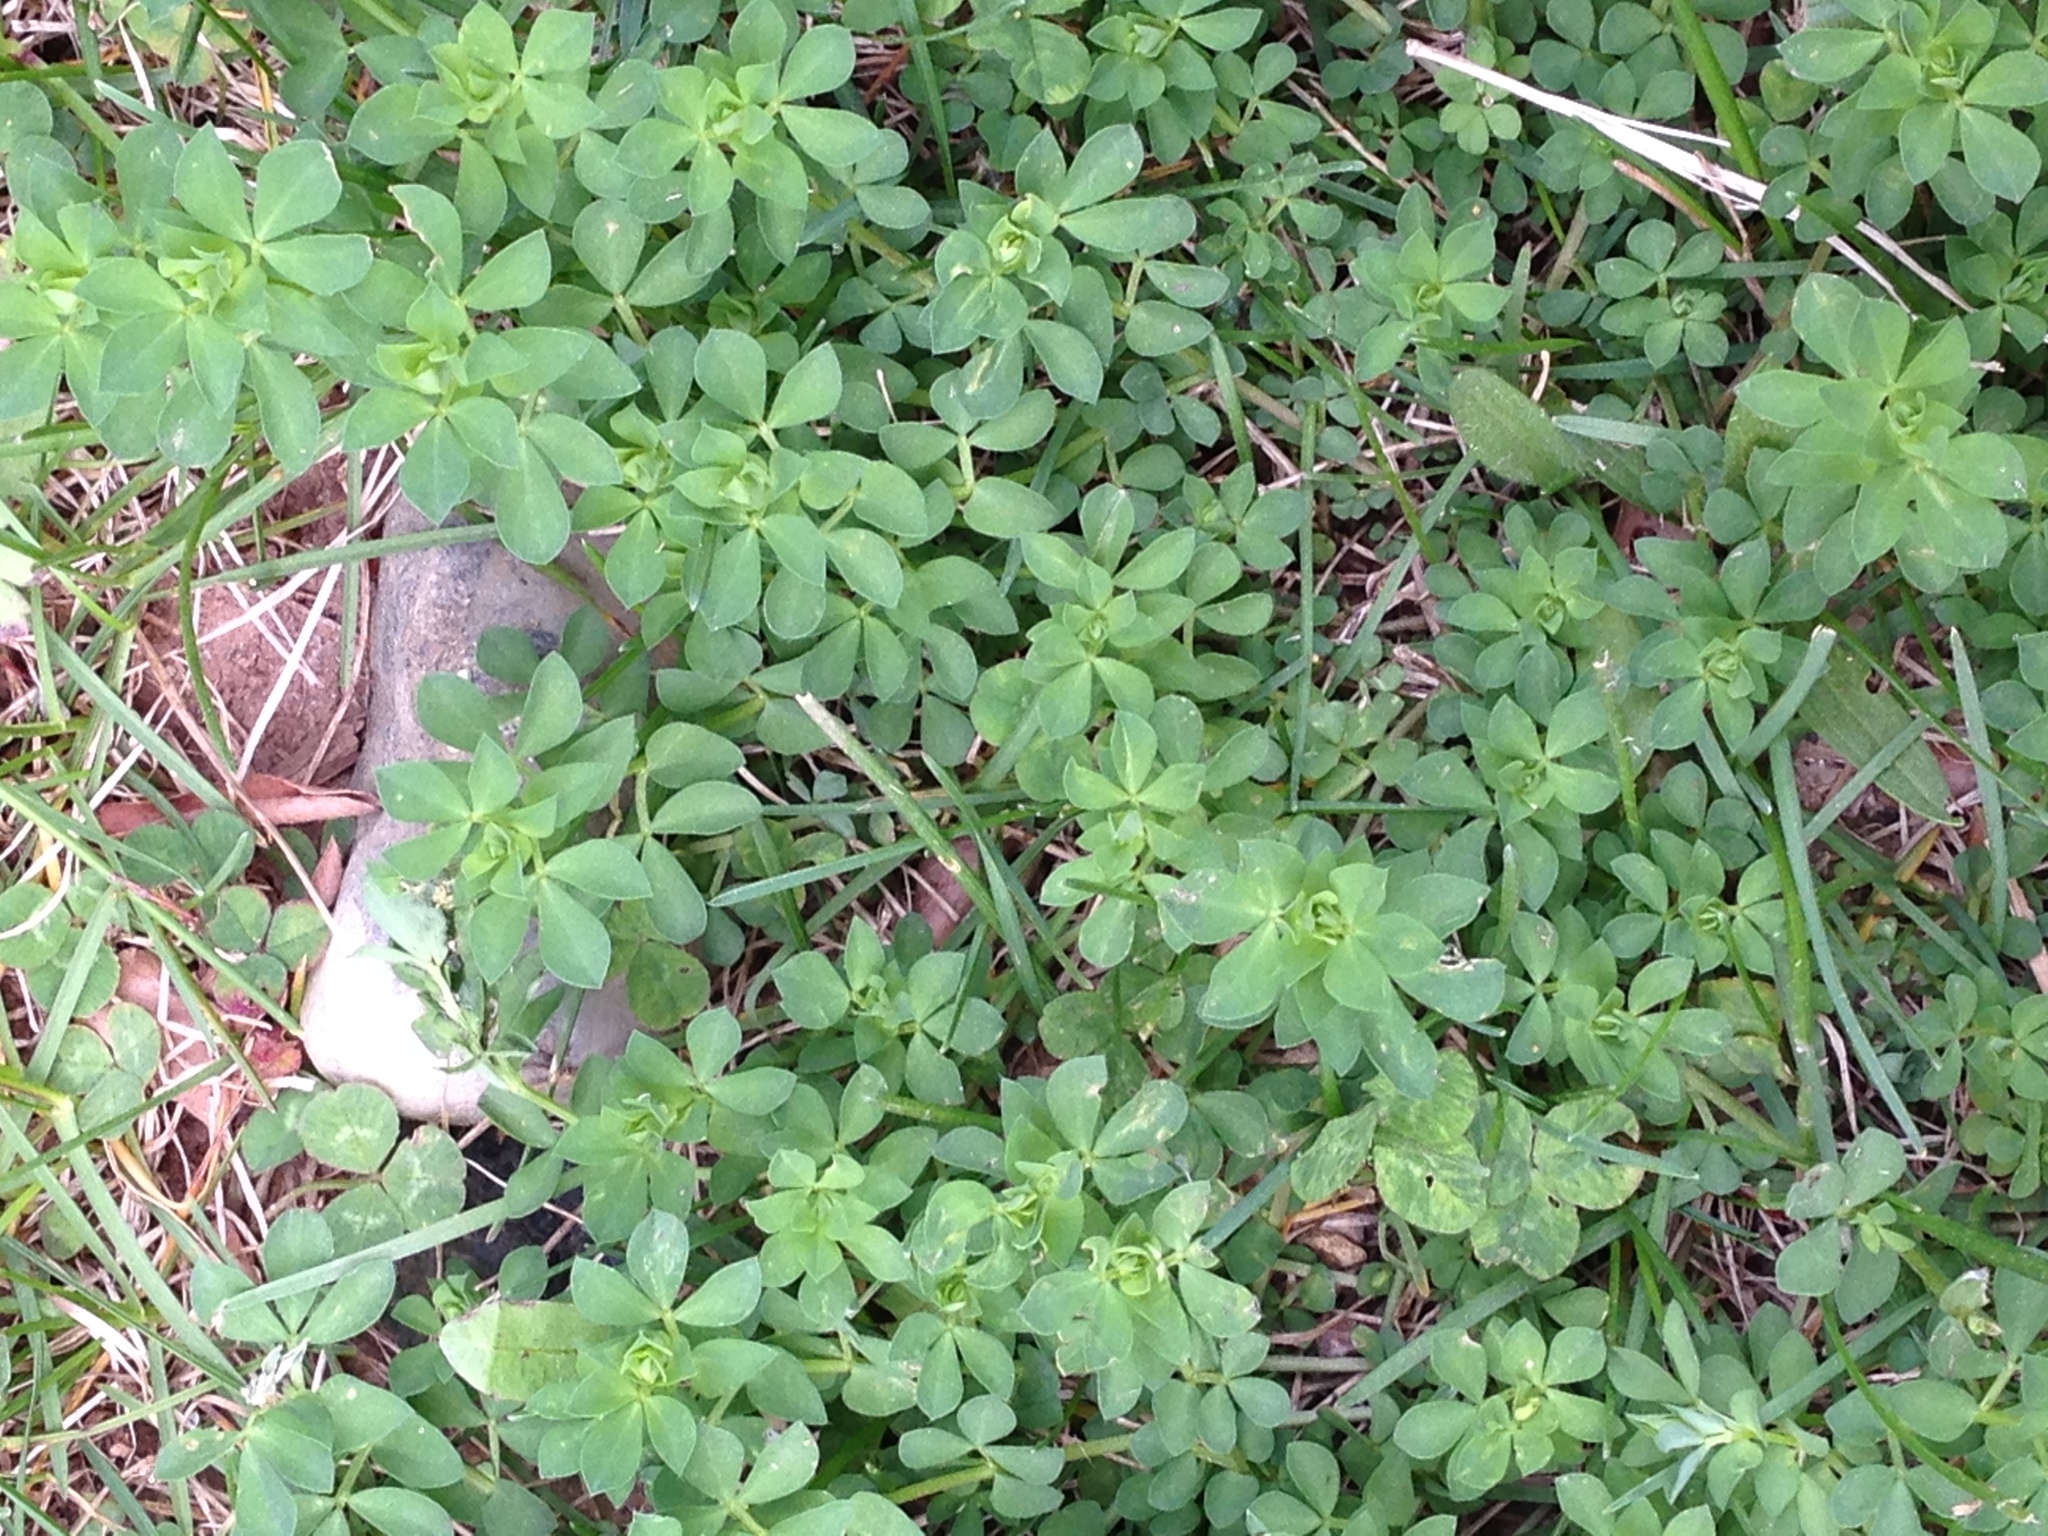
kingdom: Plantae
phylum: Tracheophyta
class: Magnoliopsida
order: Fabales
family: Fabaceae
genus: Lotus
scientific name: Lotus corniculatus
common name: Common bird's-foot-trefoil
